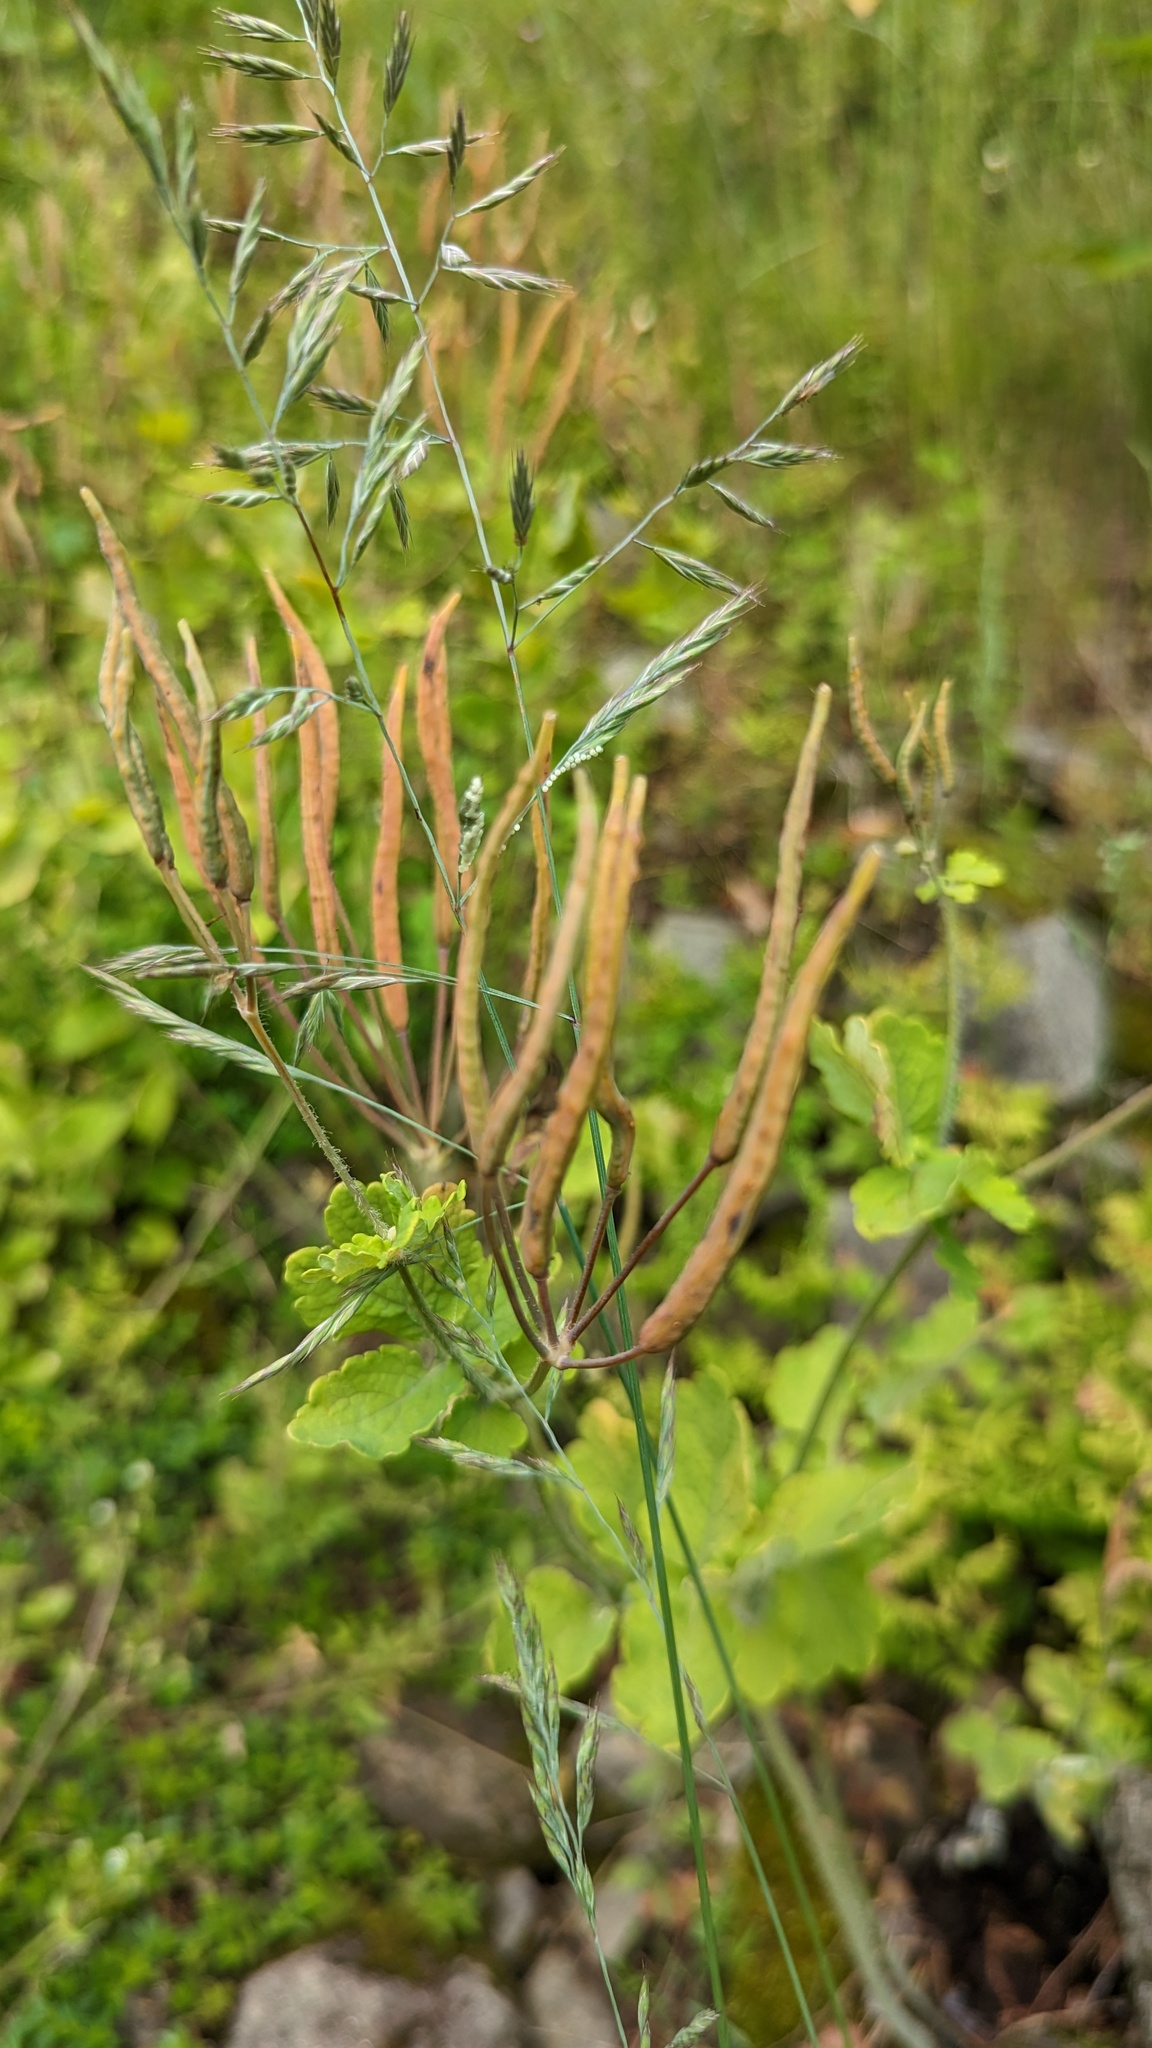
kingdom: Plantae
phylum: Tracheophyta
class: Magnoliopsida
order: Ranunculales
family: Papaveraceae
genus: Chelidonium
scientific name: Chelidonium majus
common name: Greater celandine
